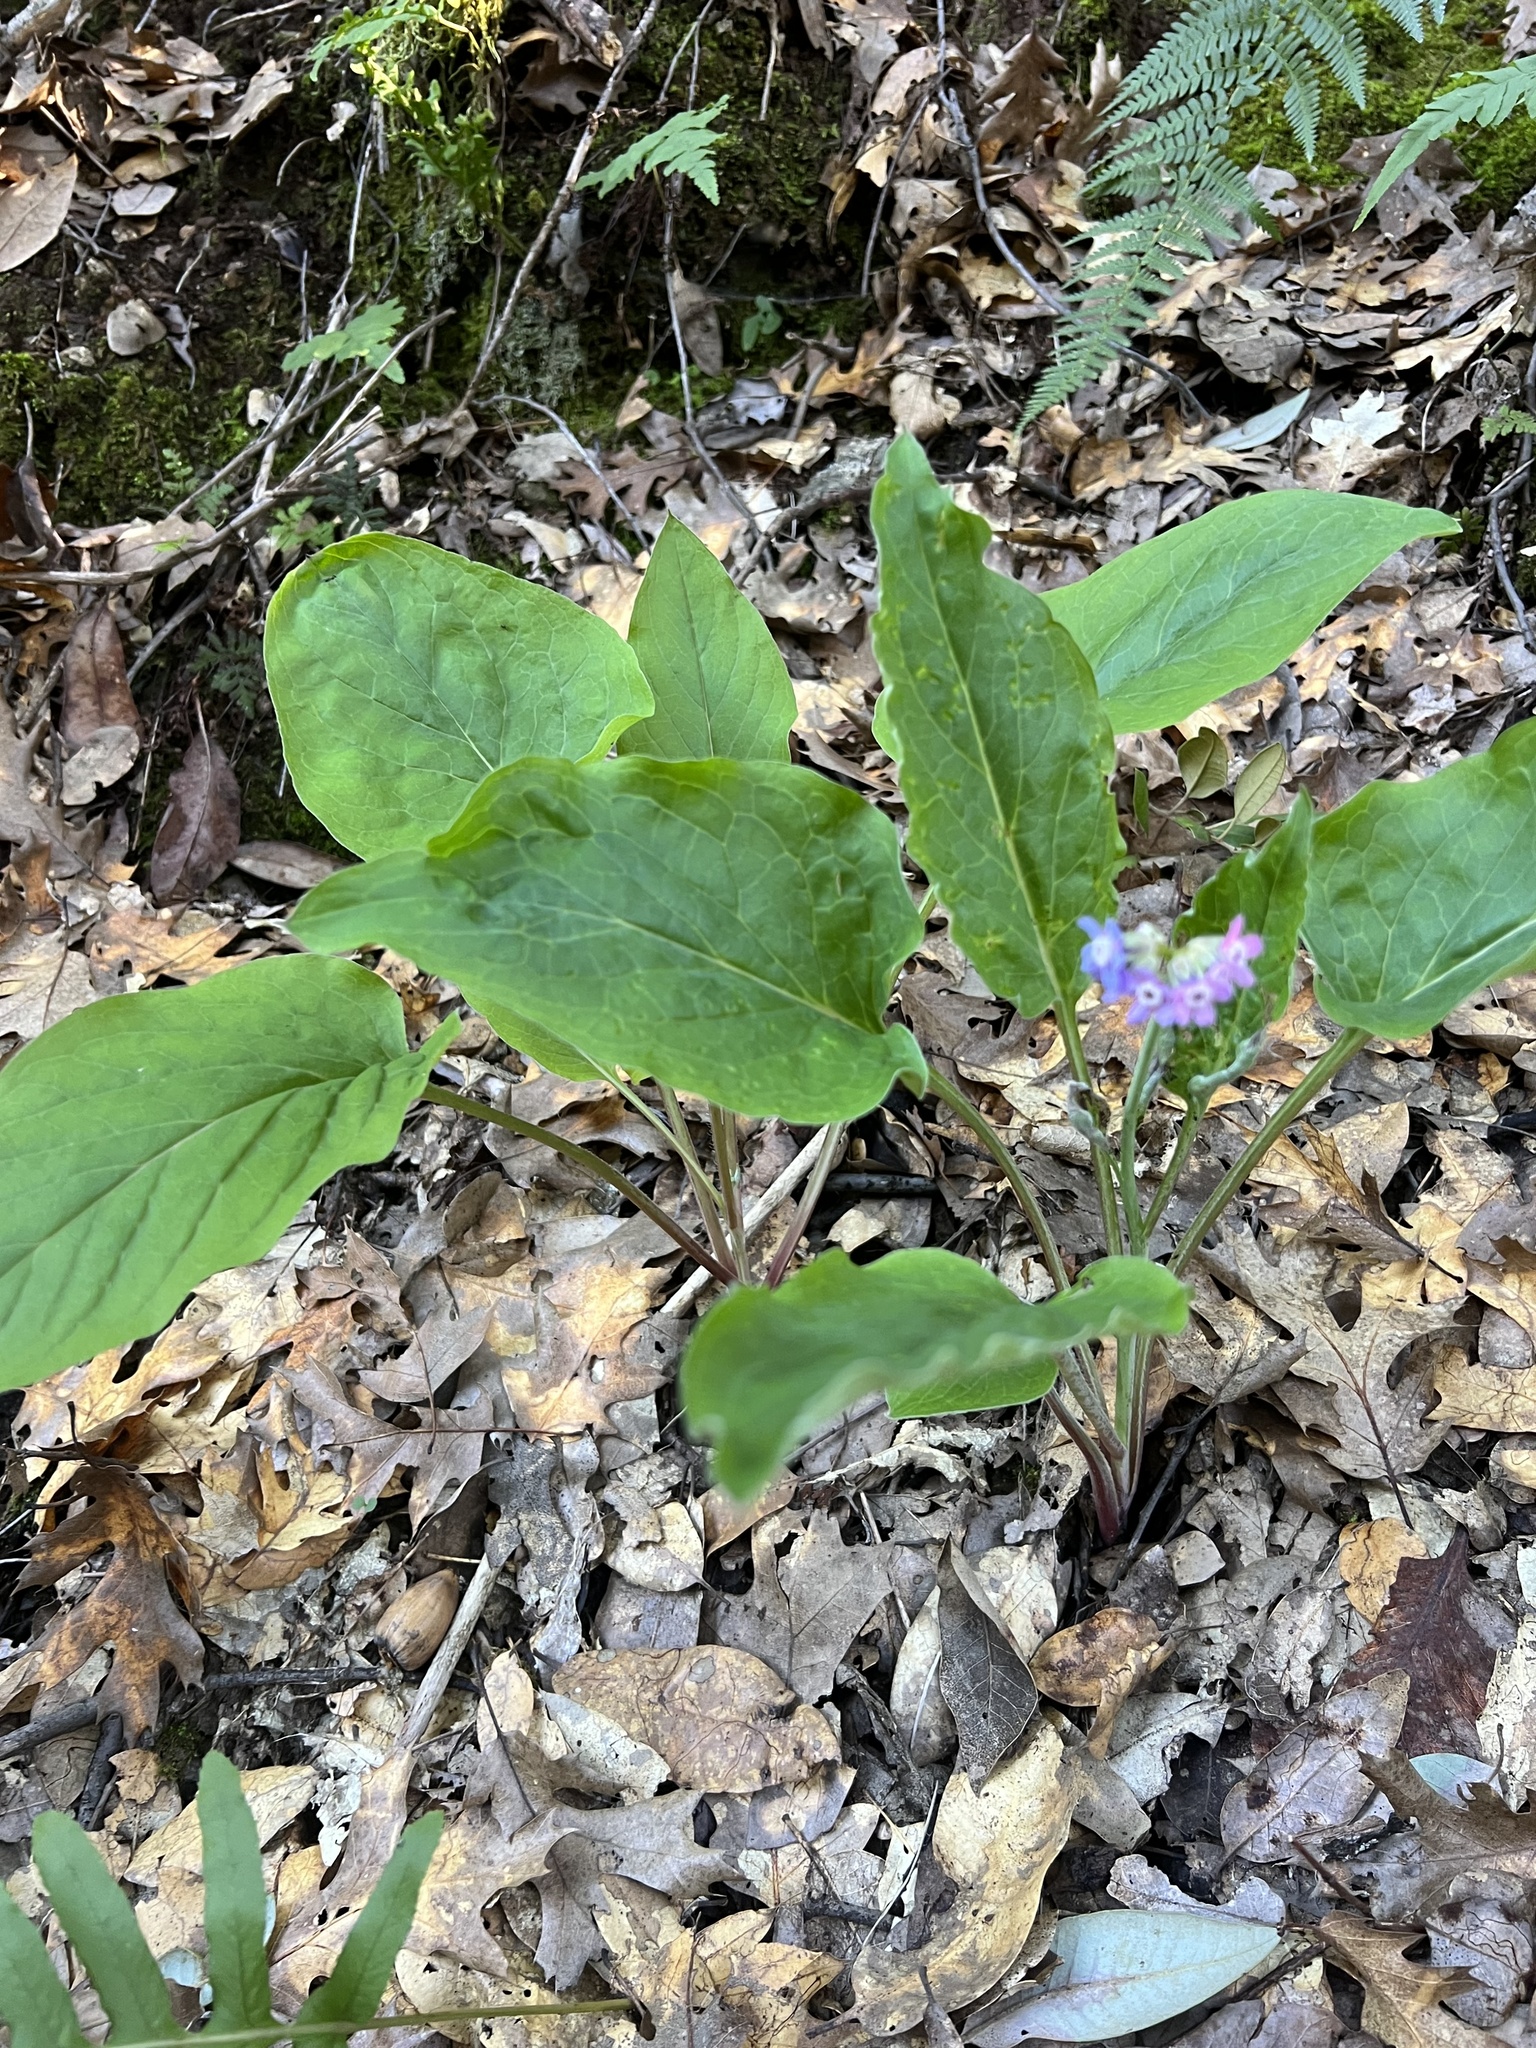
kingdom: Plantae
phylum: Tracheophyta
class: Magnoliopsida
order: Boraginales
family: Boraginaceae
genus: Adelinia
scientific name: Adelinia grande
